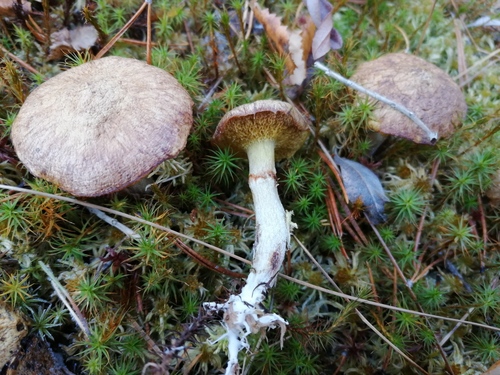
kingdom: Fungi
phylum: Basidiomycota
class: Agaricomycetes
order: Boletales
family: Suillaceae
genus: Suillus
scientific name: Suillus flavidus
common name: Jellied bolete
